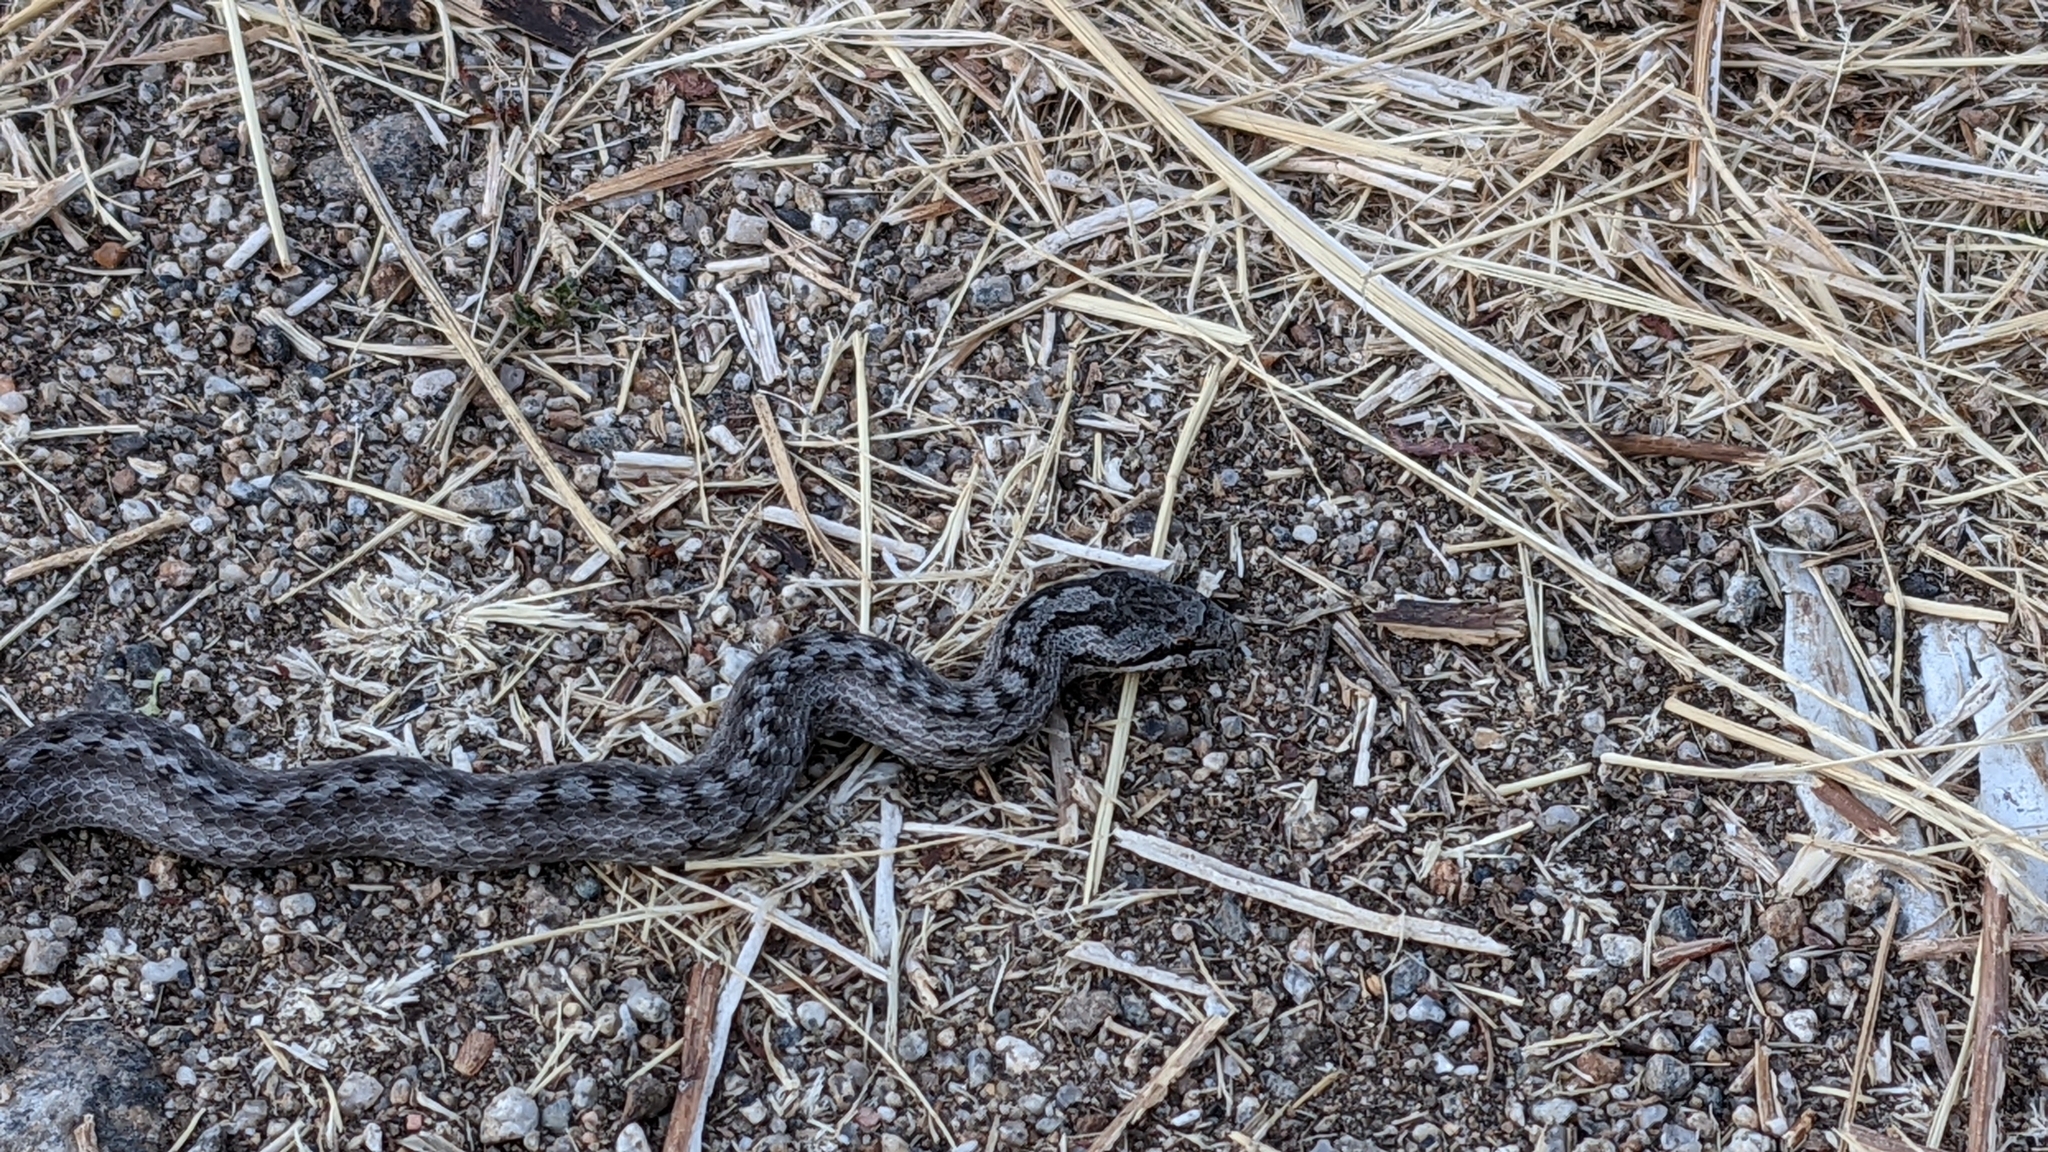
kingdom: Animalia
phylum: Chordata
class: Squamata
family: Colubridae
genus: Coronella
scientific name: Coronella girondica
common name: Southern smooth snake
